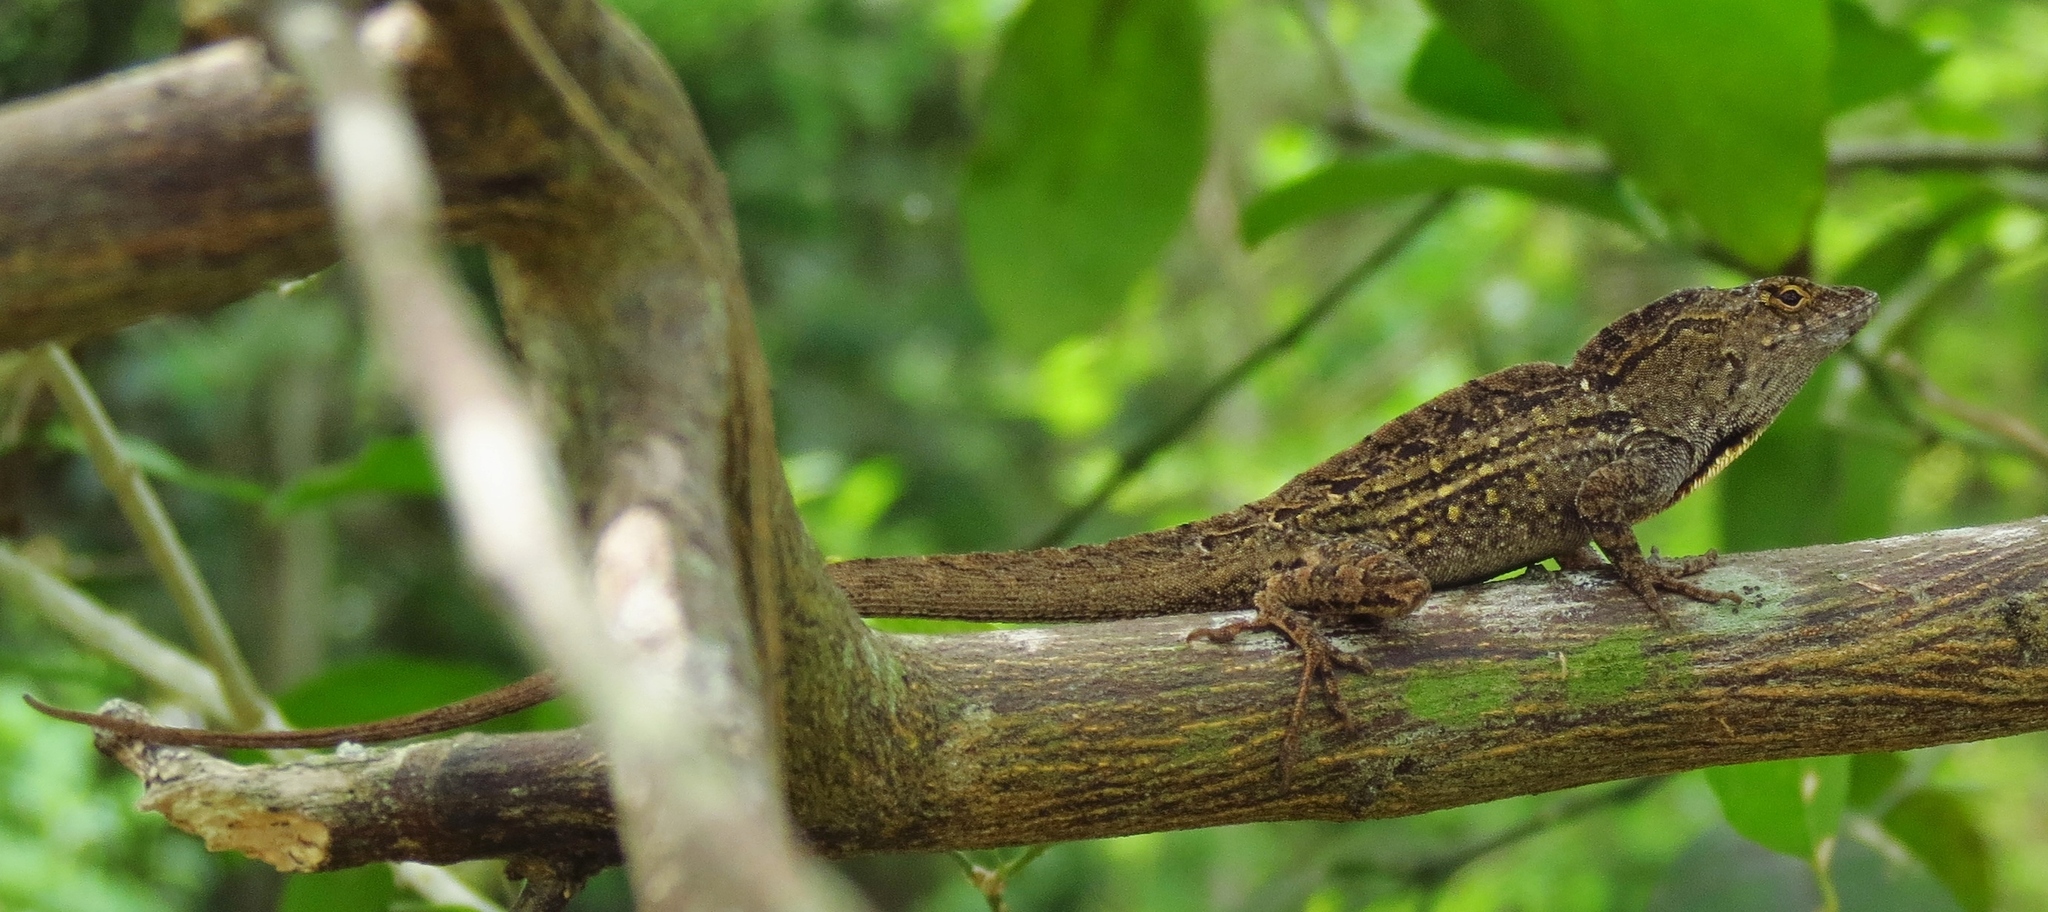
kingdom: Animalia
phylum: Chordata
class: Squamata
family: Dactyloidae
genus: Anolis
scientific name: Anolis sagrei
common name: Brown anole
